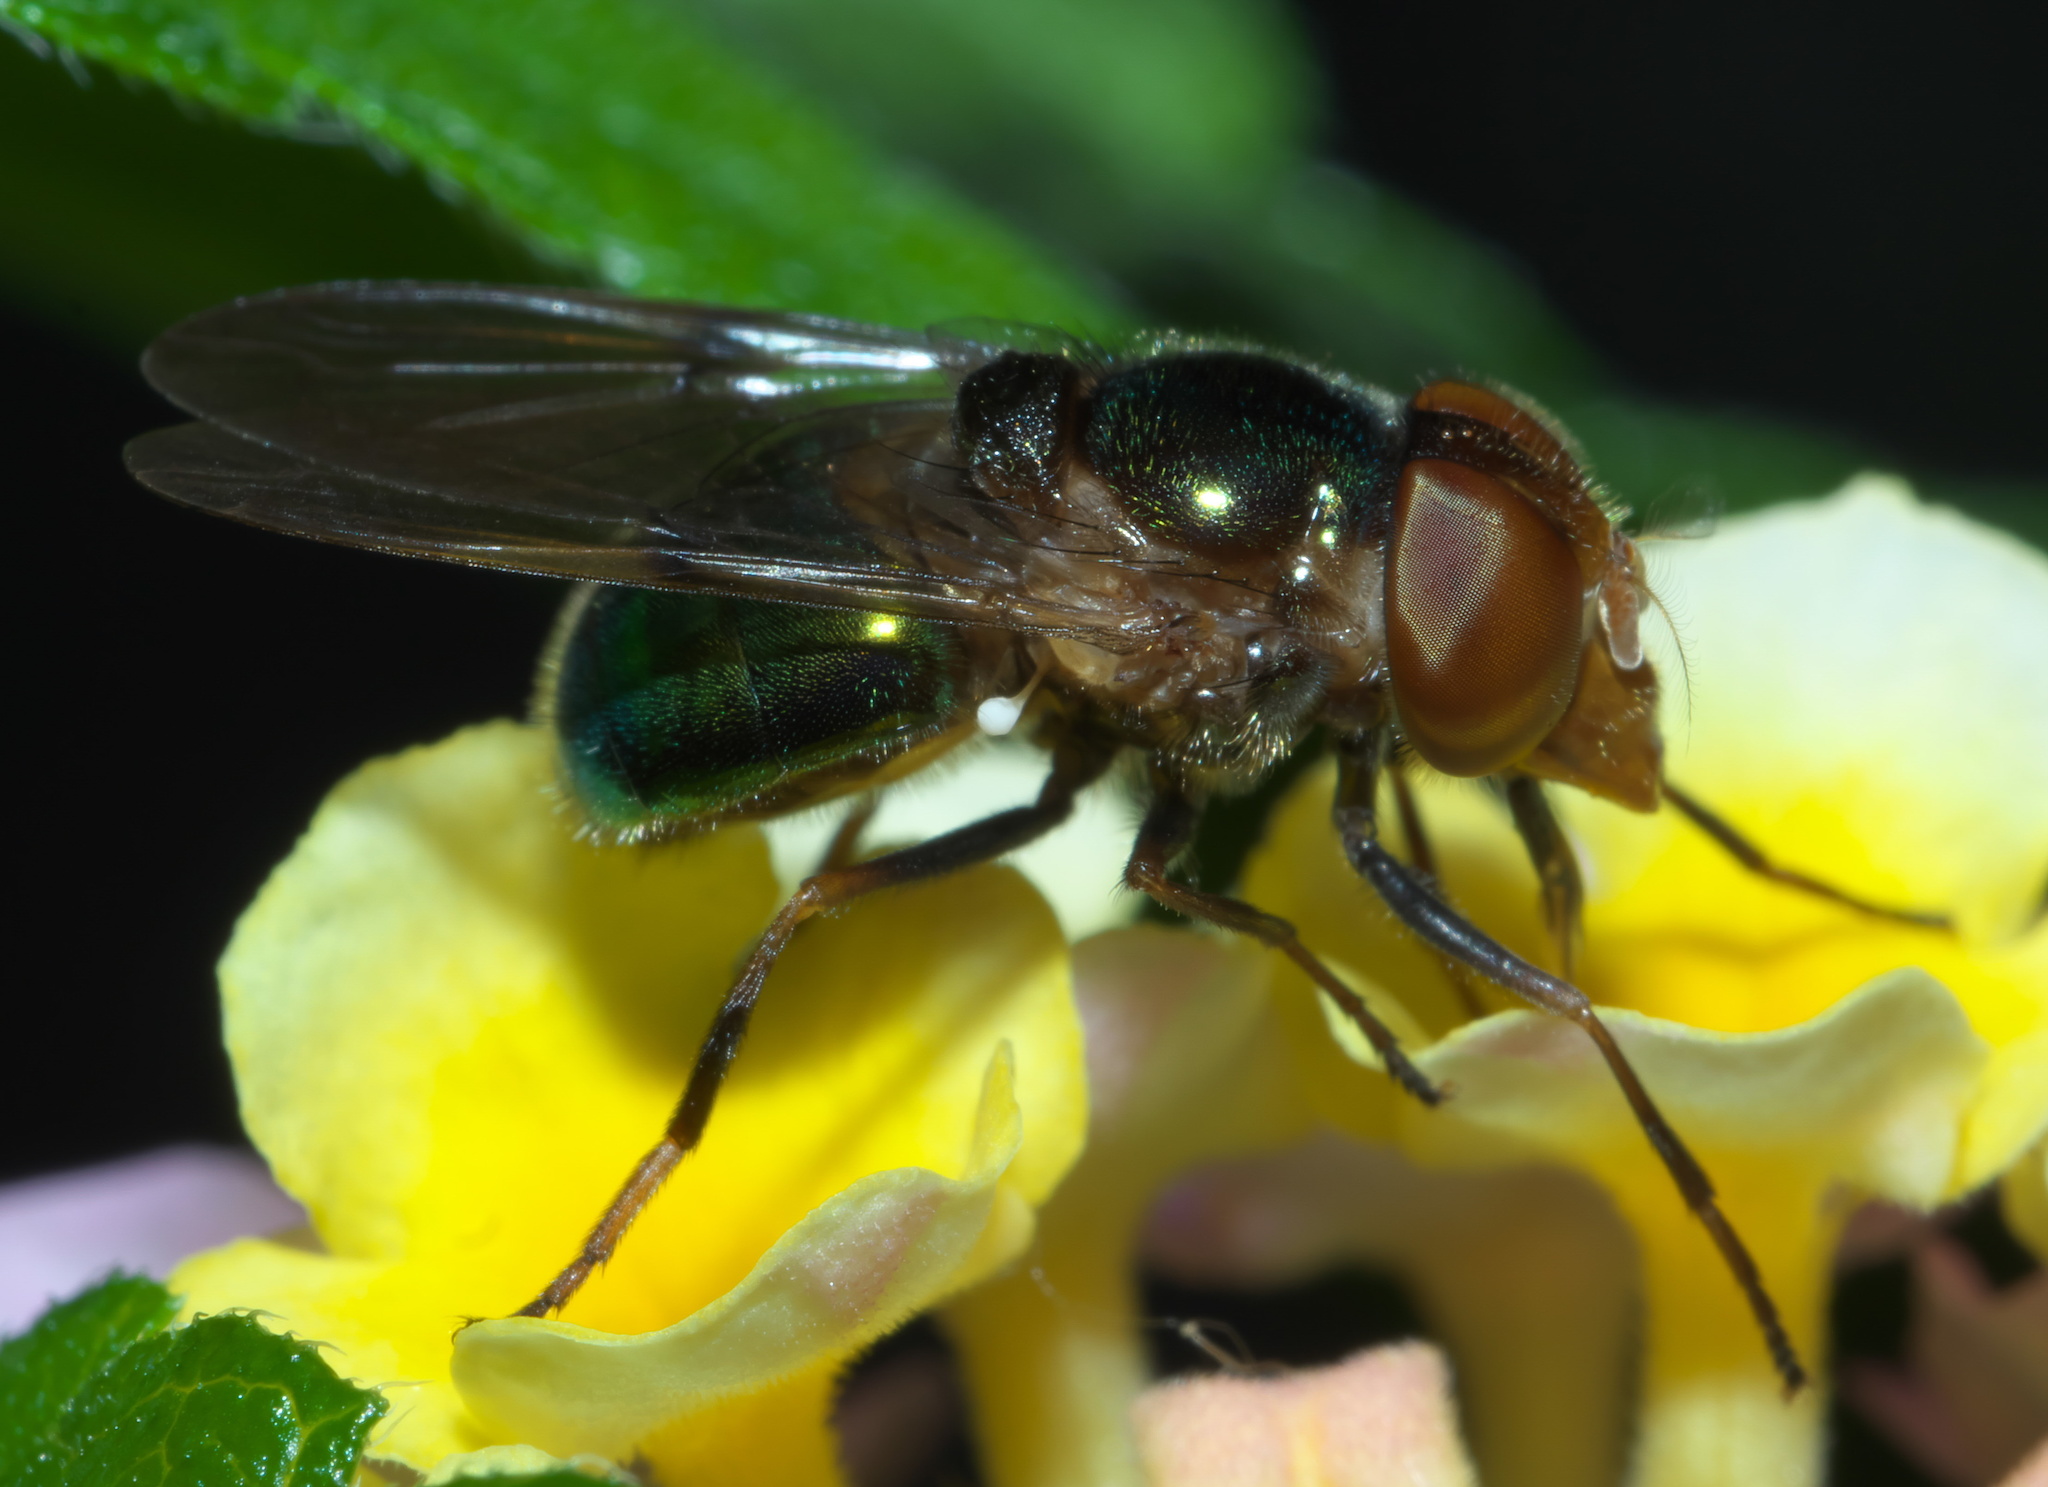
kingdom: Animalia
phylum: Arthropoda
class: Insecta
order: Diptera
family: Syrphidae
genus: Copestylum
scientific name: Copestylum vesicularium
